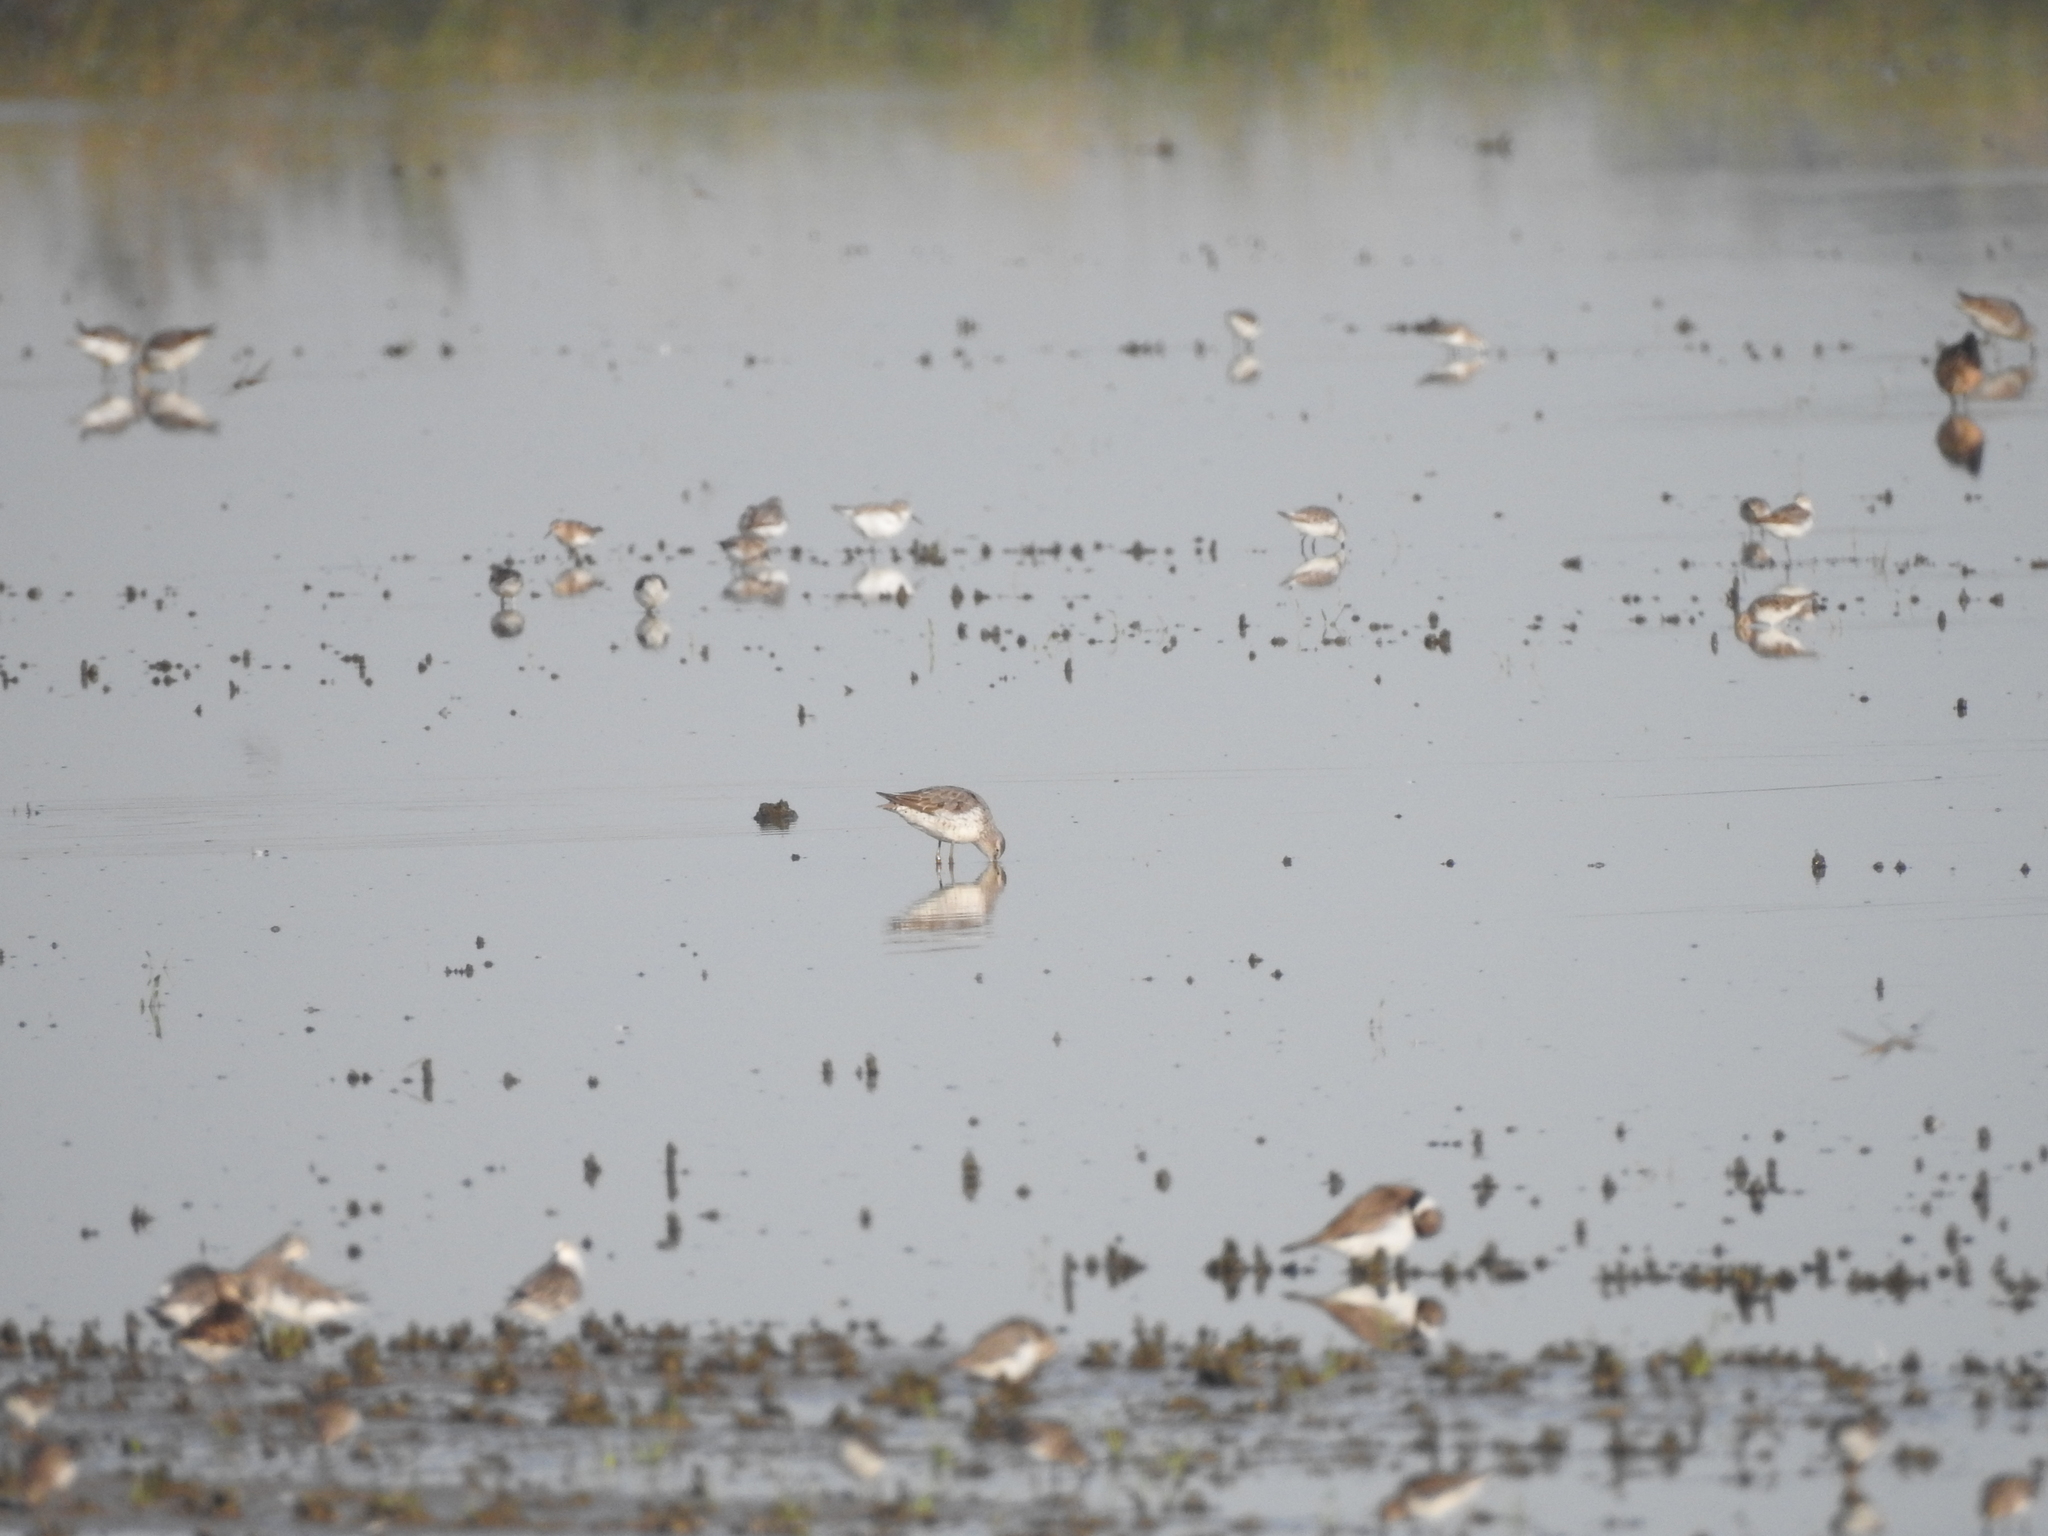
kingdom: Animalia
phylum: Chordata
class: Aves
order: Charadriiformes
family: Scolopacidae
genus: Calidris
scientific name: Calidris himantopus
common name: Stilt sandpiper
